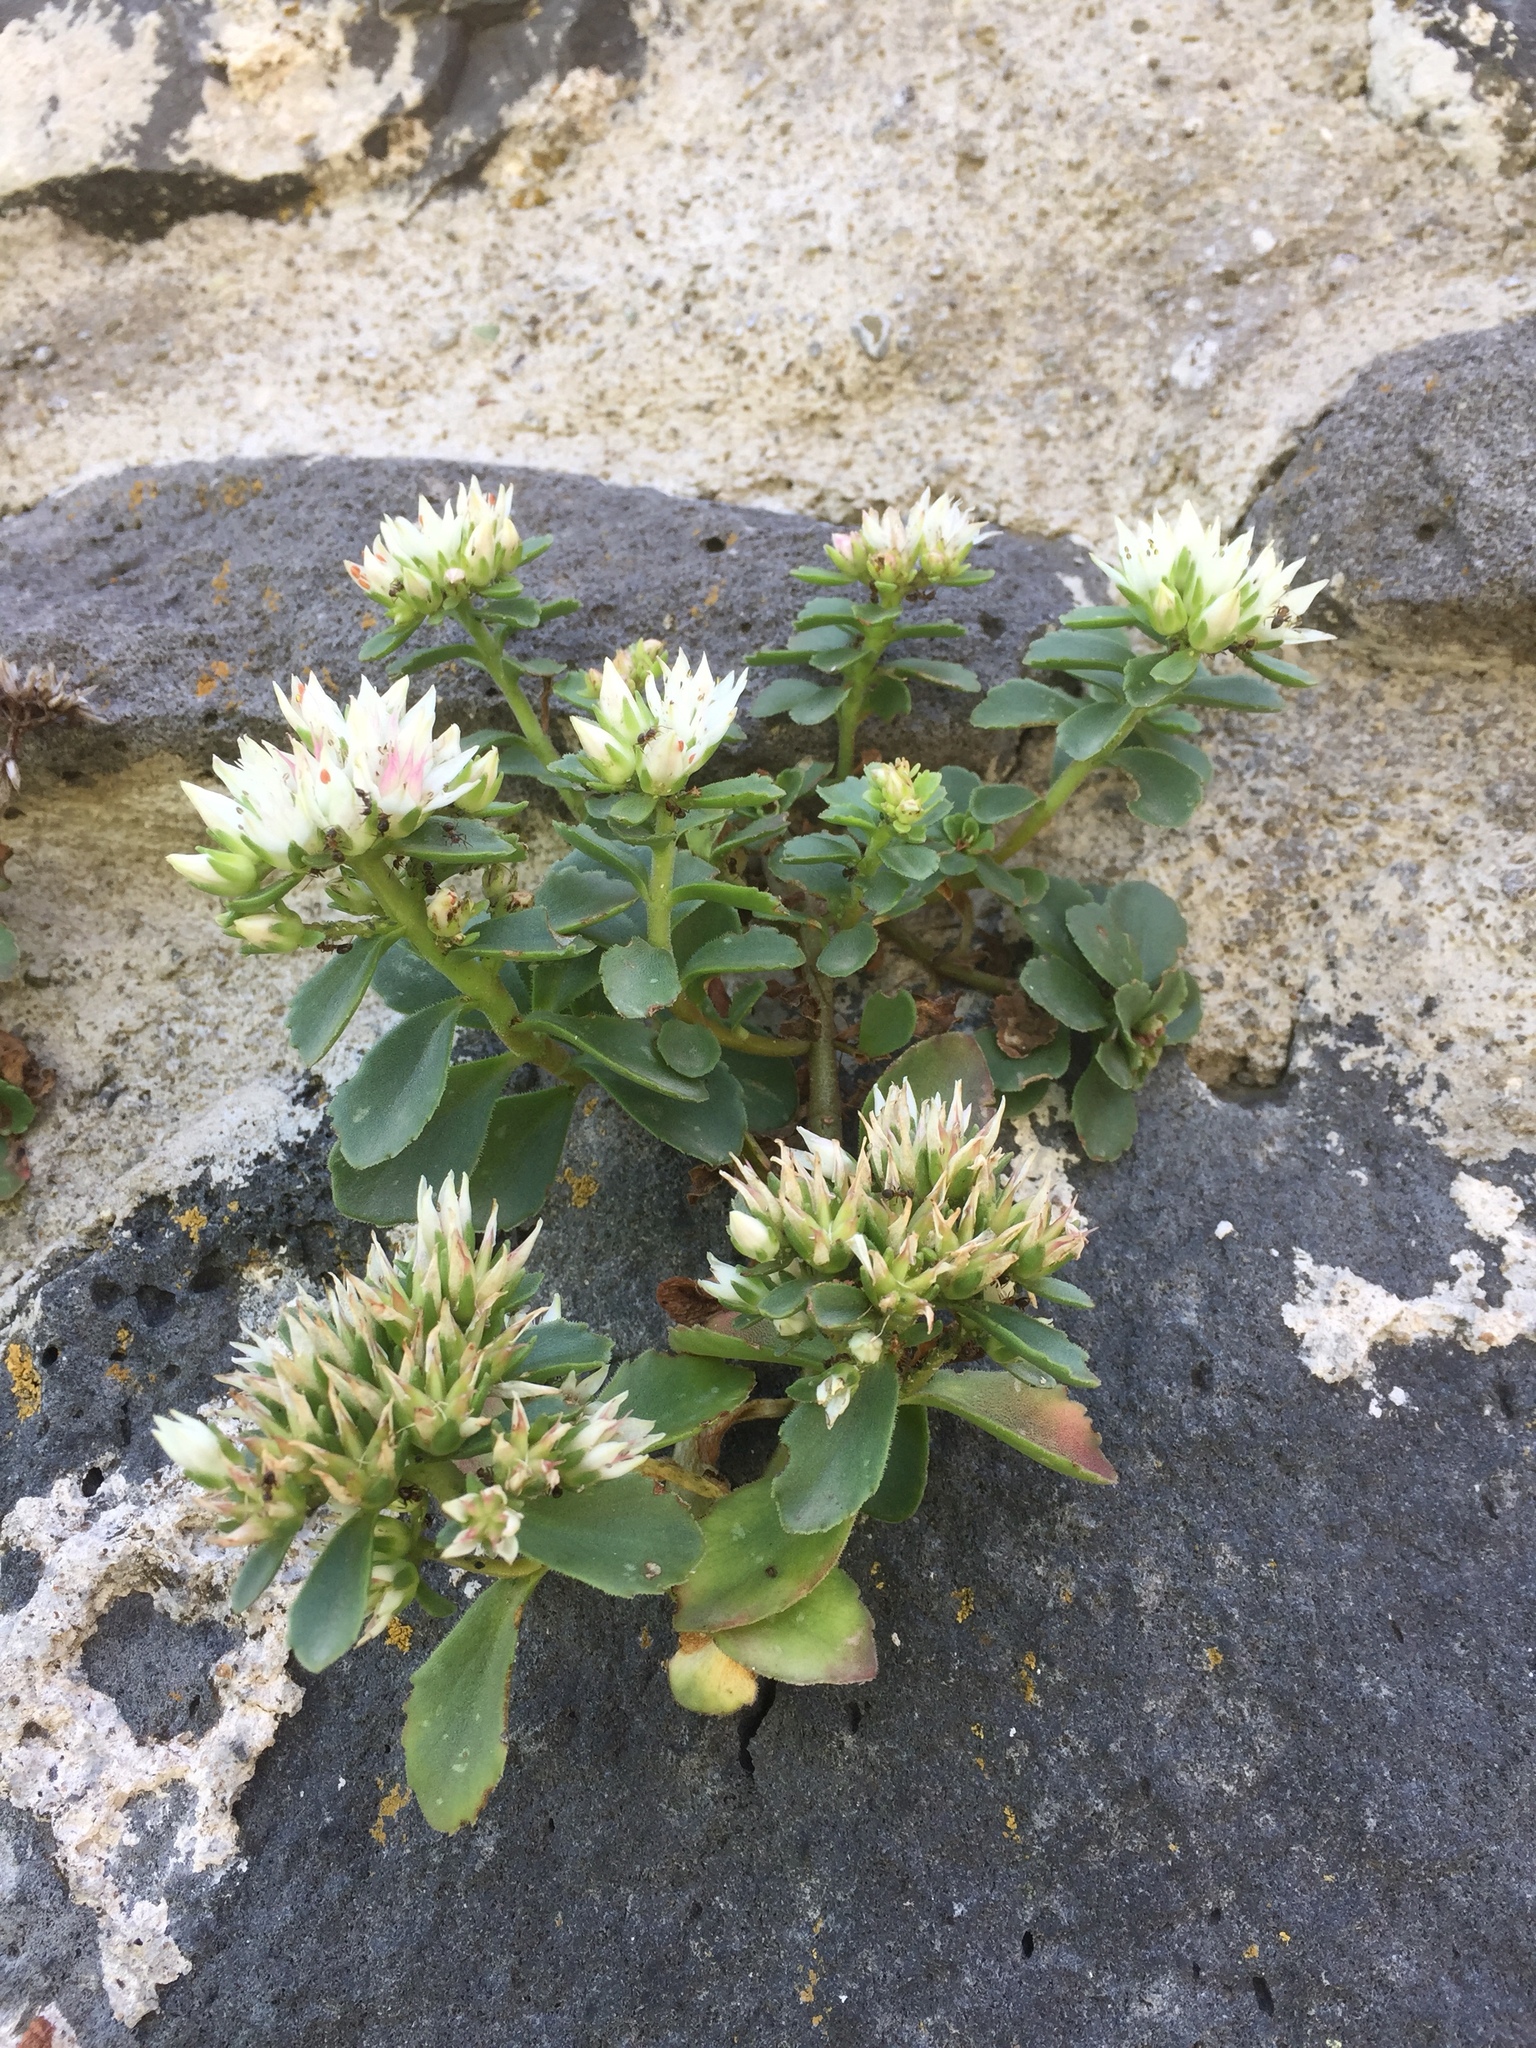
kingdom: Plantae
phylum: Tracheophyta
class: Magnoliopsida
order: Saxifragales
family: Crassulaceae
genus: Phedimus
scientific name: Phedimus spurius
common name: Caucasian stonecrop
